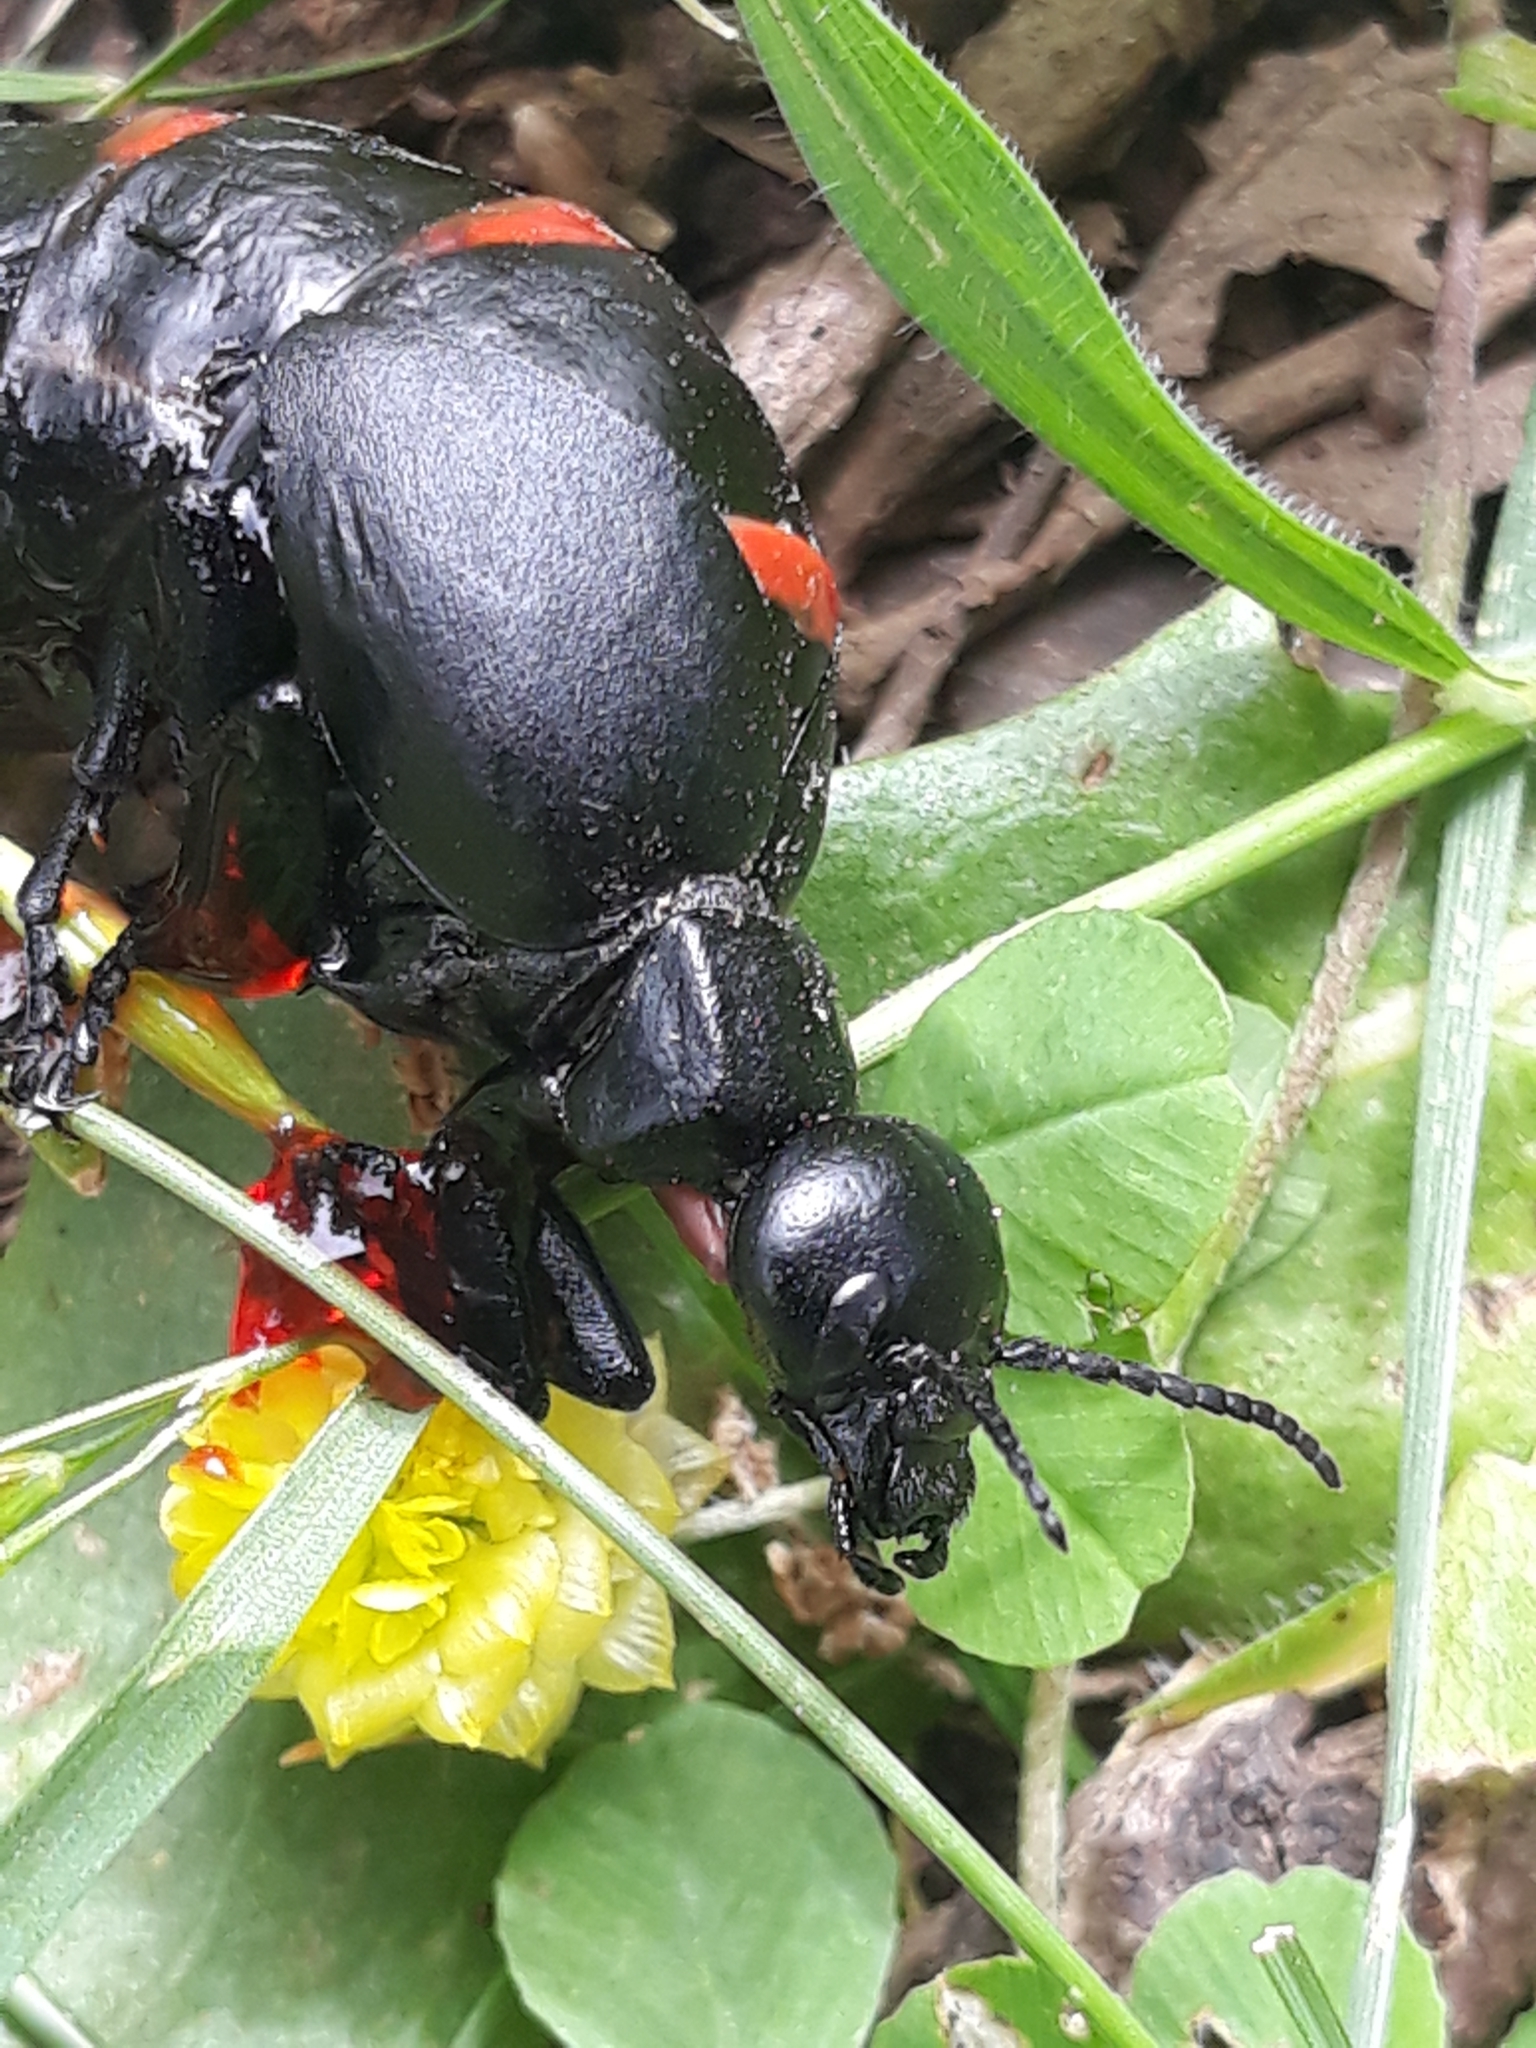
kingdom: Animalia
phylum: Arthropoda
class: Insecta
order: Coleoptera
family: Meloidae
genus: Berberomeloe
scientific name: Berberomeloe maculifrons
